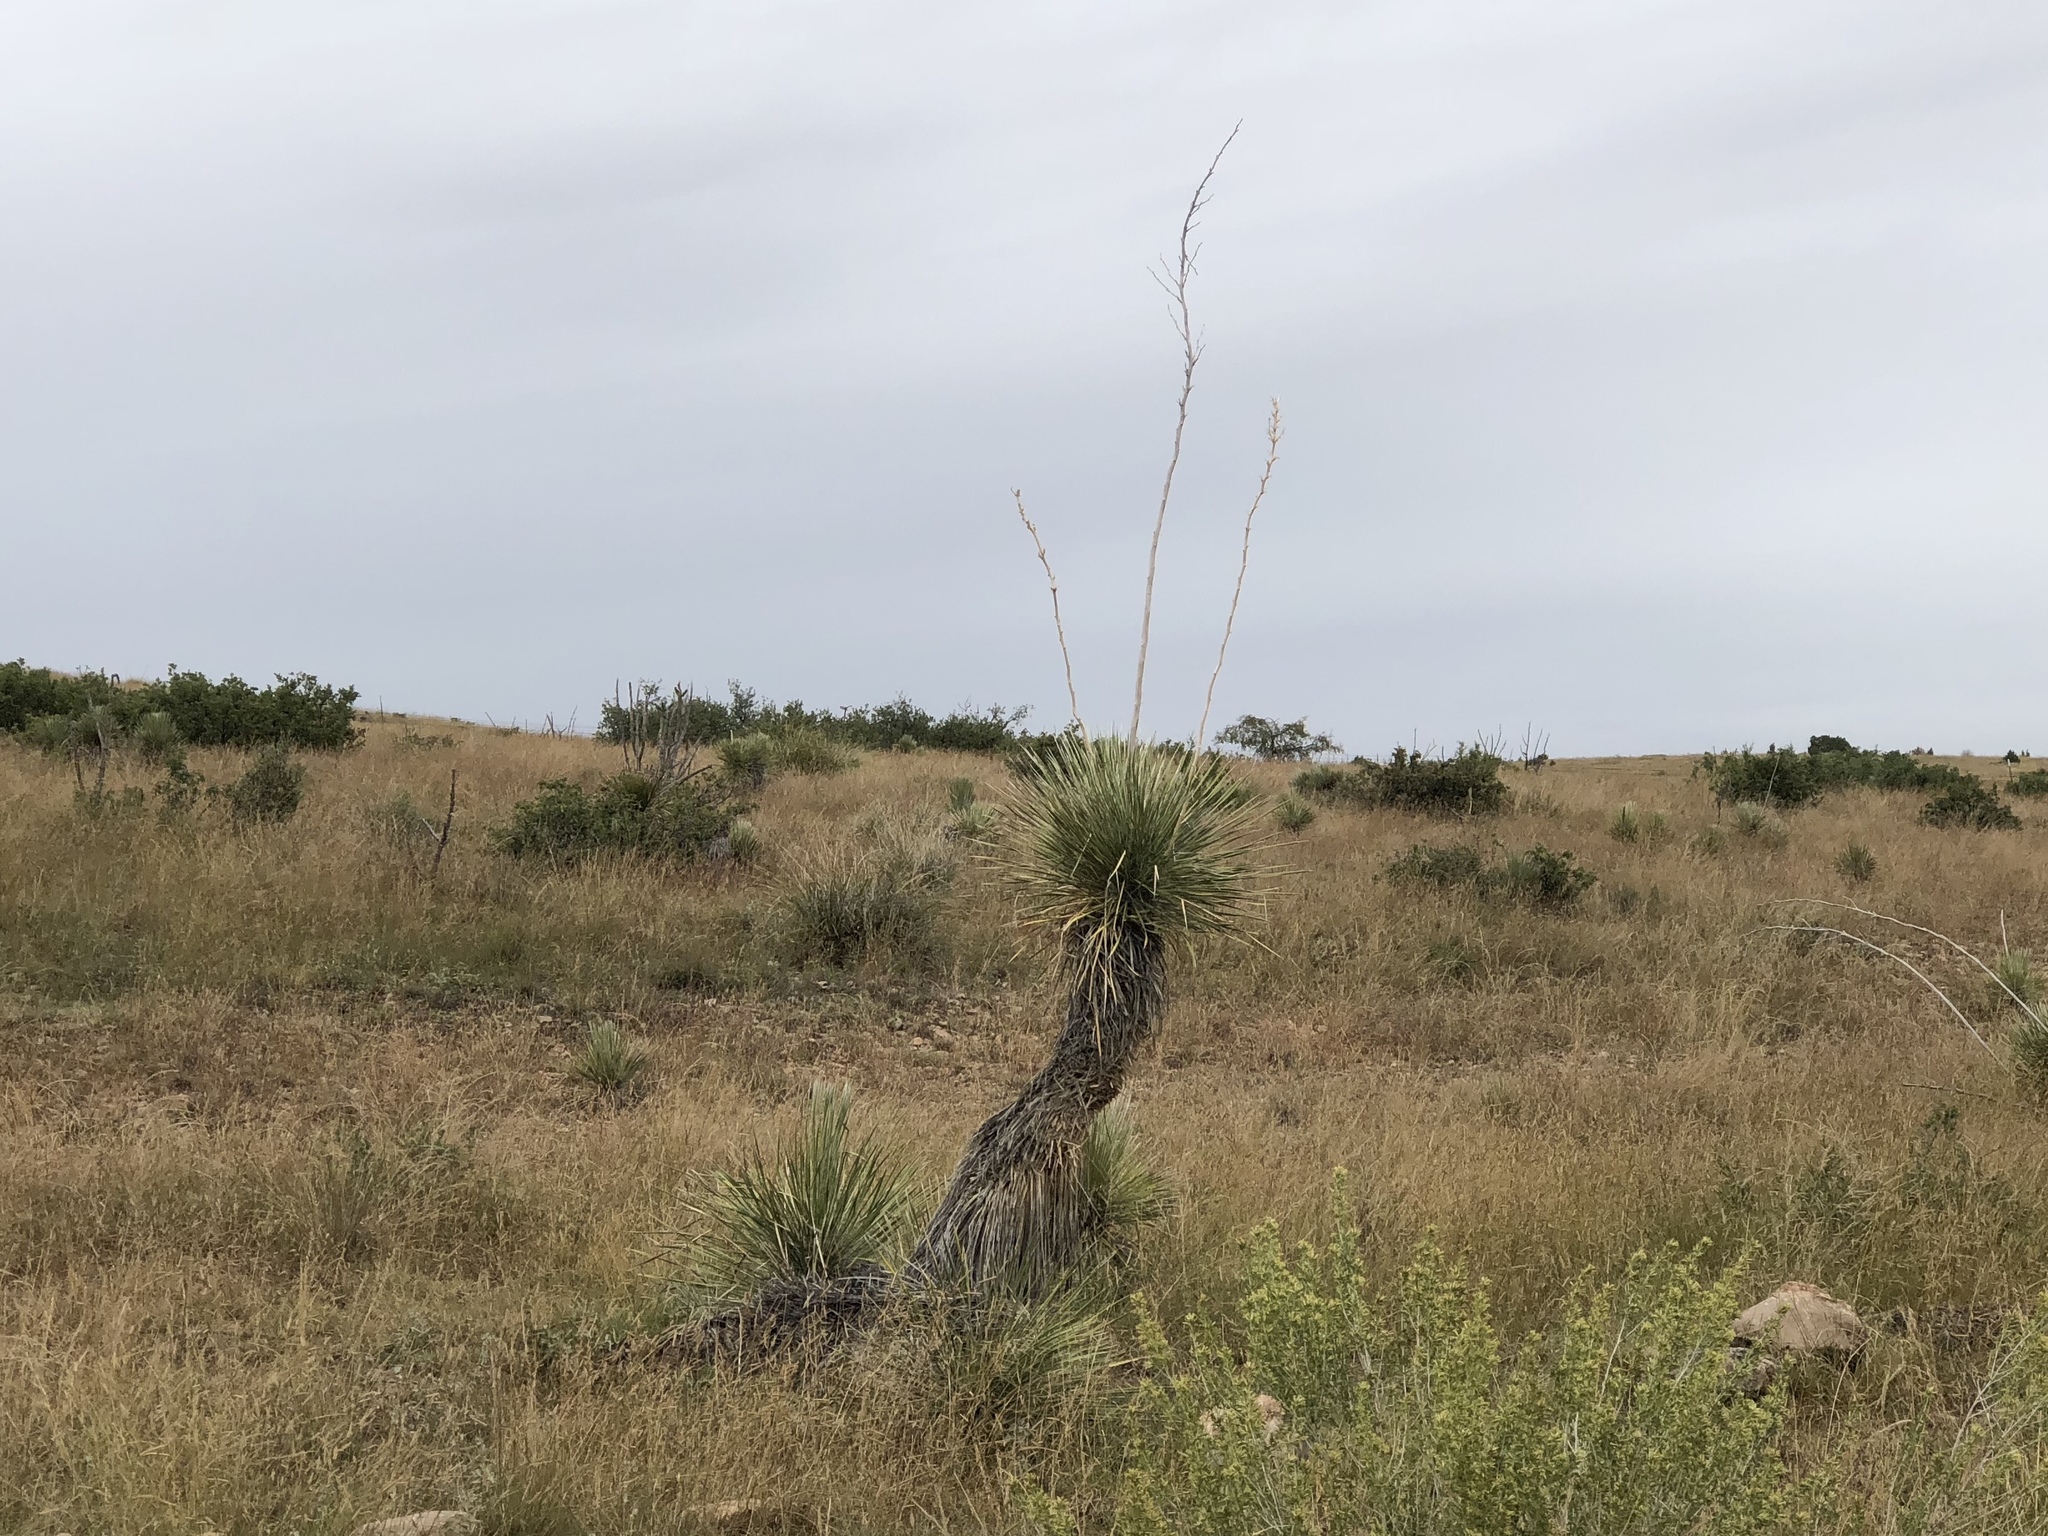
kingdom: Plantae
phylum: Tracheophyta
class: Liliopsida
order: Asparagales
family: Asparagaceae
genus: Yucca
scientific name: Yucca elata
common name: Palmella
